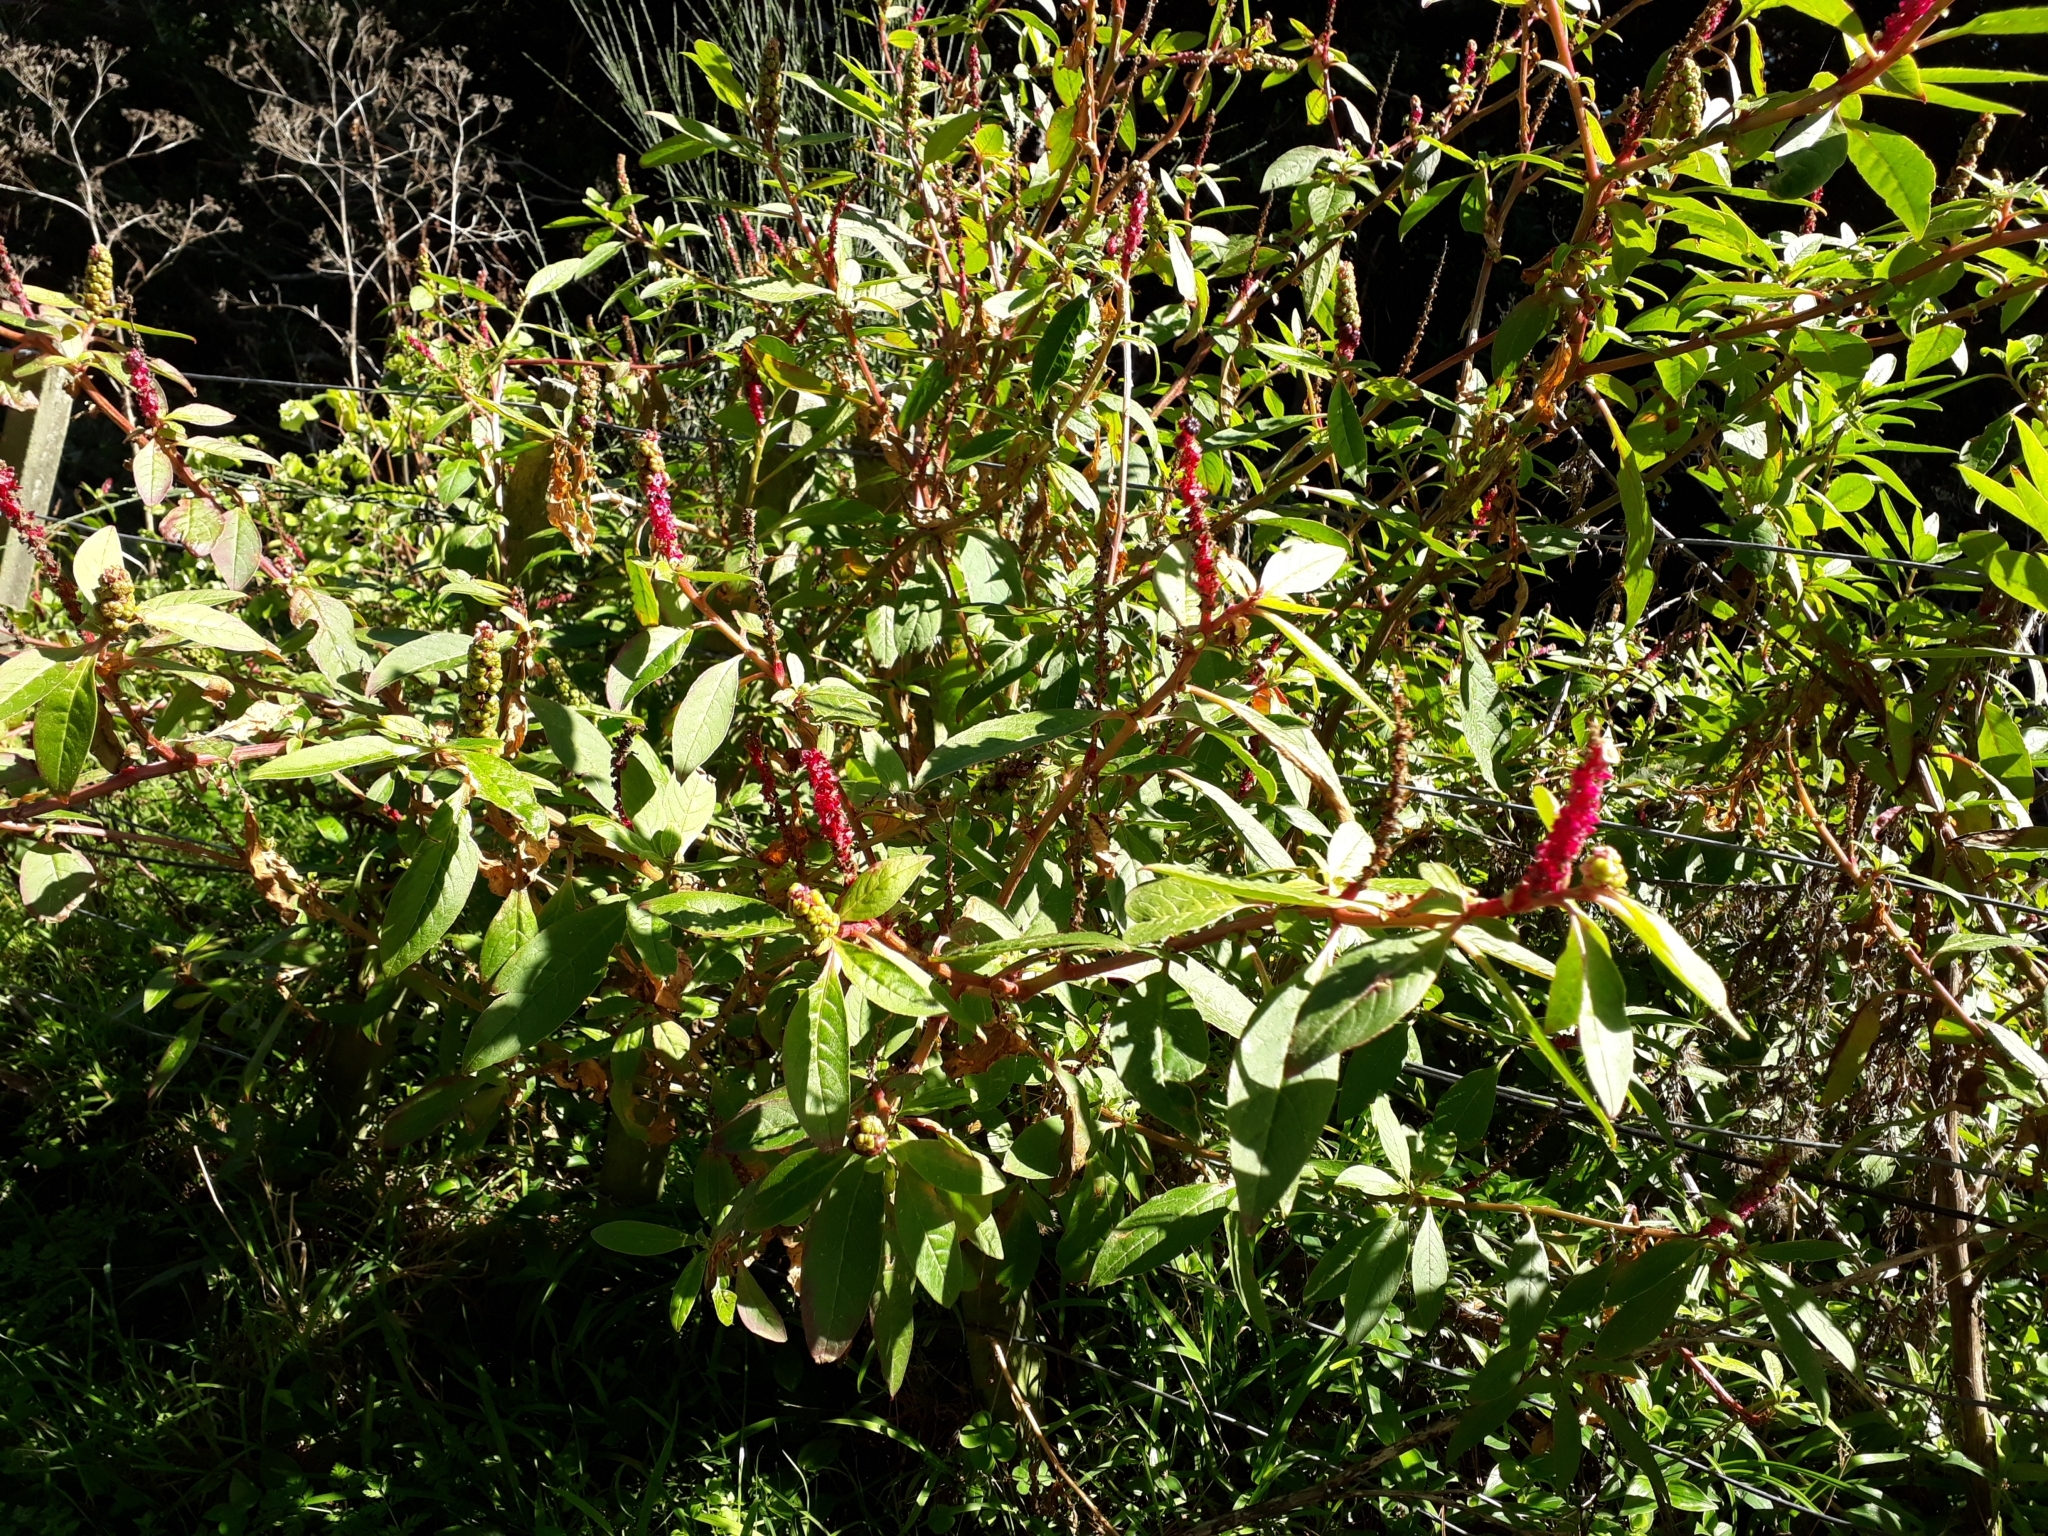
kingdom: Plantae
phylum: Tracheophyta
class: Magnoliopsida
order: Caryophyllales
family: Phytolaccaceae
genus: Phytolacca
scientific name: Phytolacca icosandra
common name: Button pokeweed
